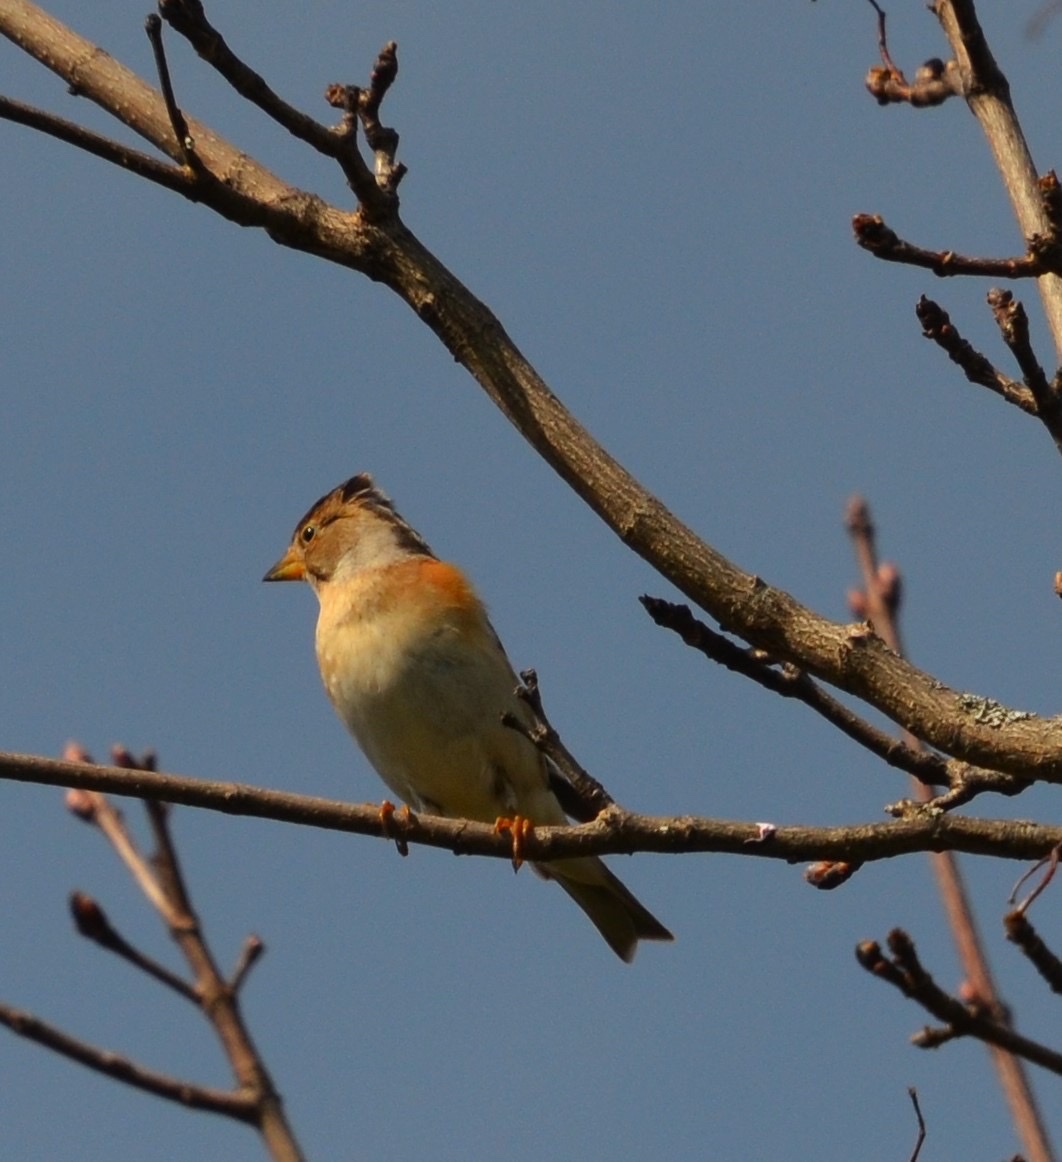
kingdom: Animalia
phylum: Chordata
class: Aves
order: Passeriformes
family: Fringillidae
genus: Fringilla
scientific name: Fringilla montifringilla
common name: Brambling
